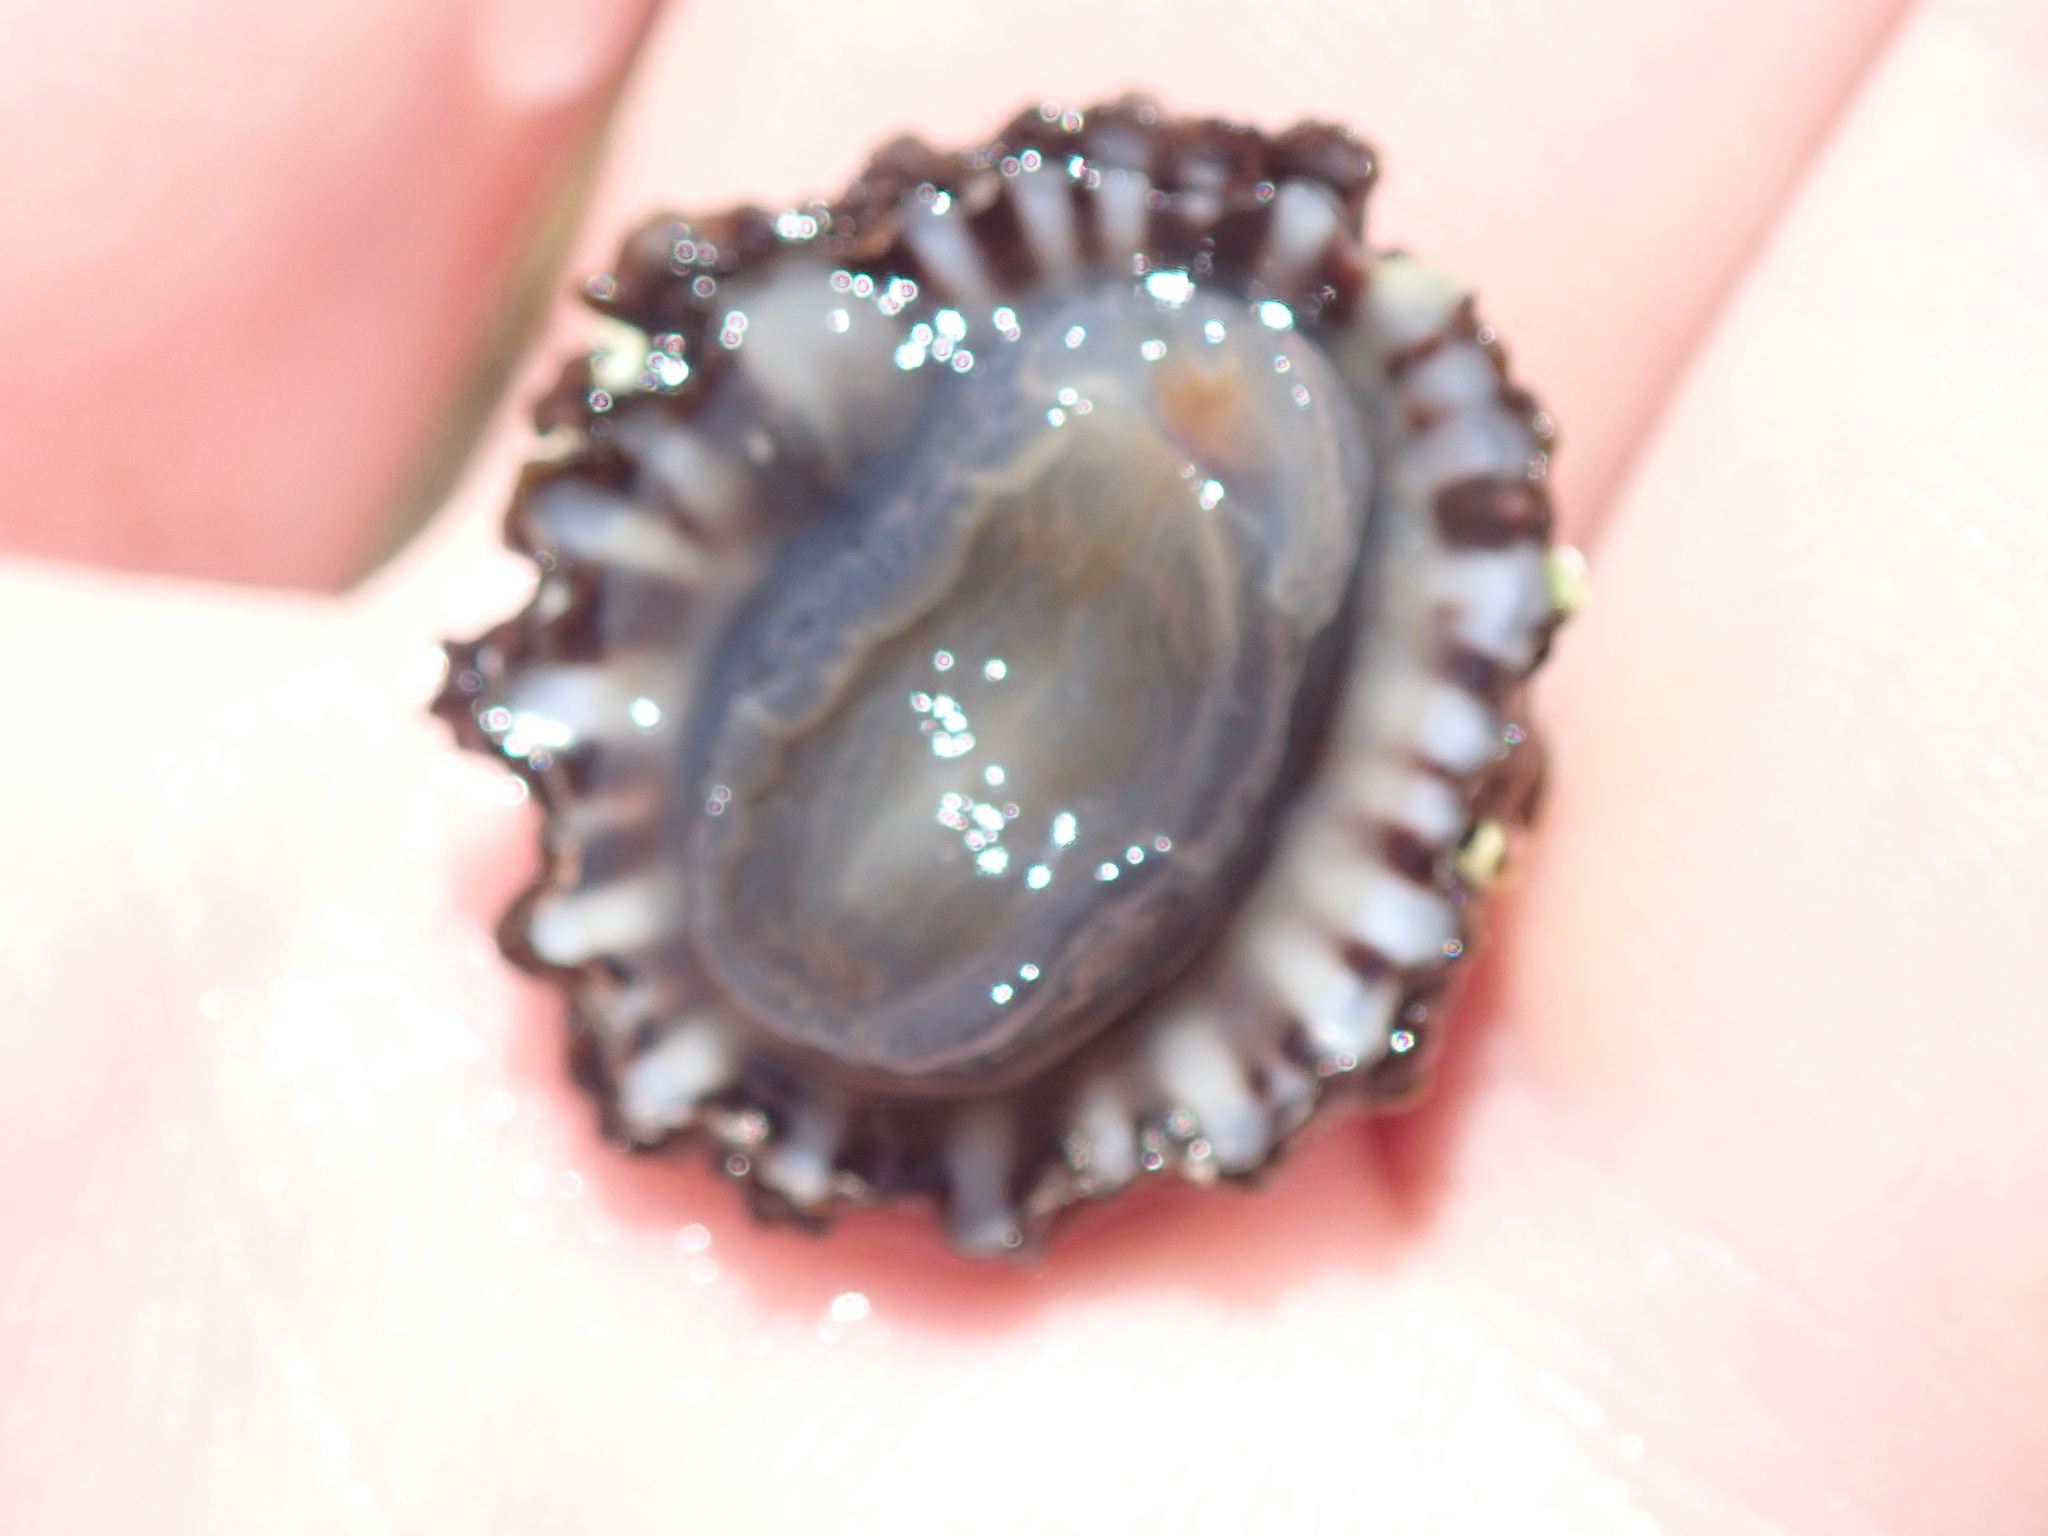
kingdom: Animalia
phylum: Mollusca
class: Gastropoda
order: Siphonariida
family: Siphonariidae
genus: Siphonaria
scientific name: Siphonaria denticulata
